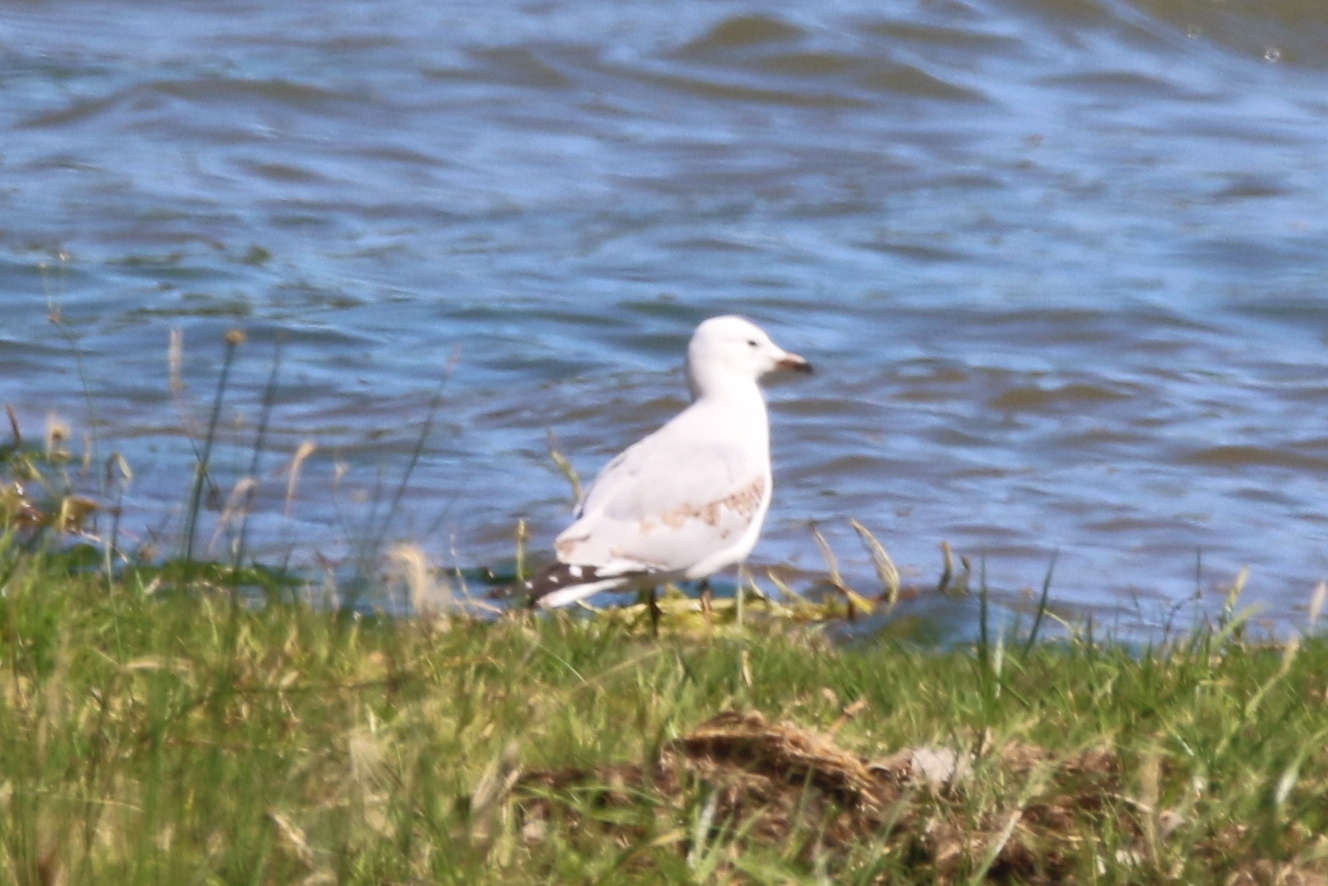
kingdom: Animalia
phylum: Chordata
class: Aves
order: Charadriiformes
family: Laridae
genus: Chroicocephalus
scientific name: Chroicocephalus novaehollandiae
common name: Silver gull
